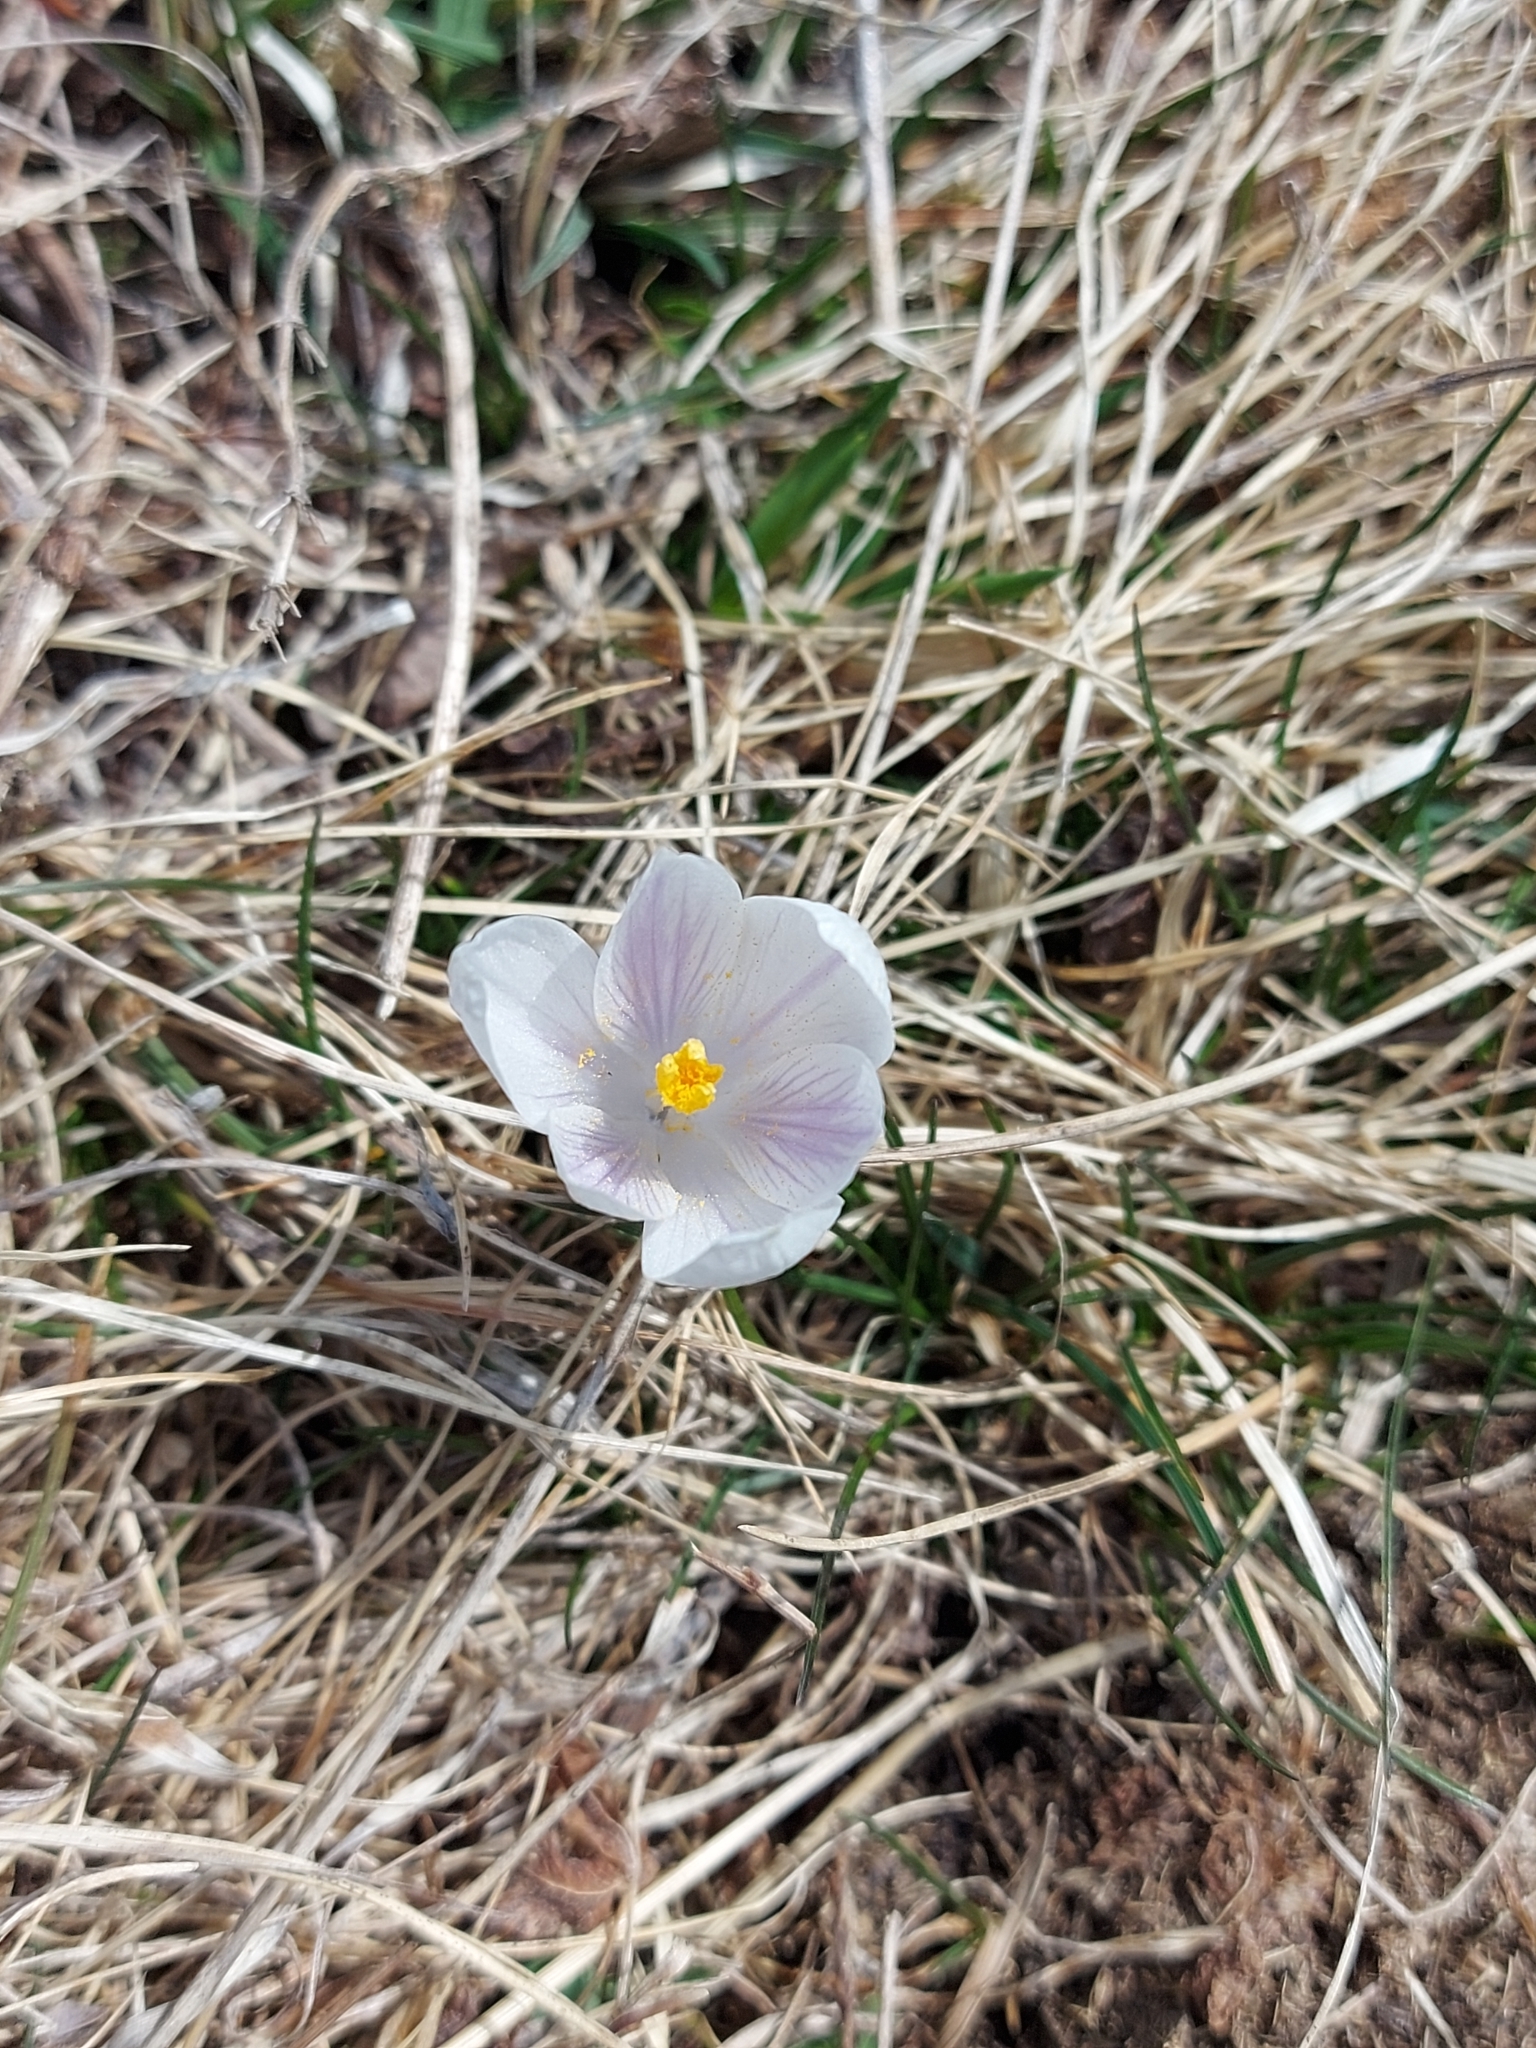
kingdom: Plantae
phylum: Tracheophyta
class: Liliopsida
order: Asparagales
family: Iridaceae
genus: Crocus
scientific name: Crocus vernus
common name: Spring crocus
